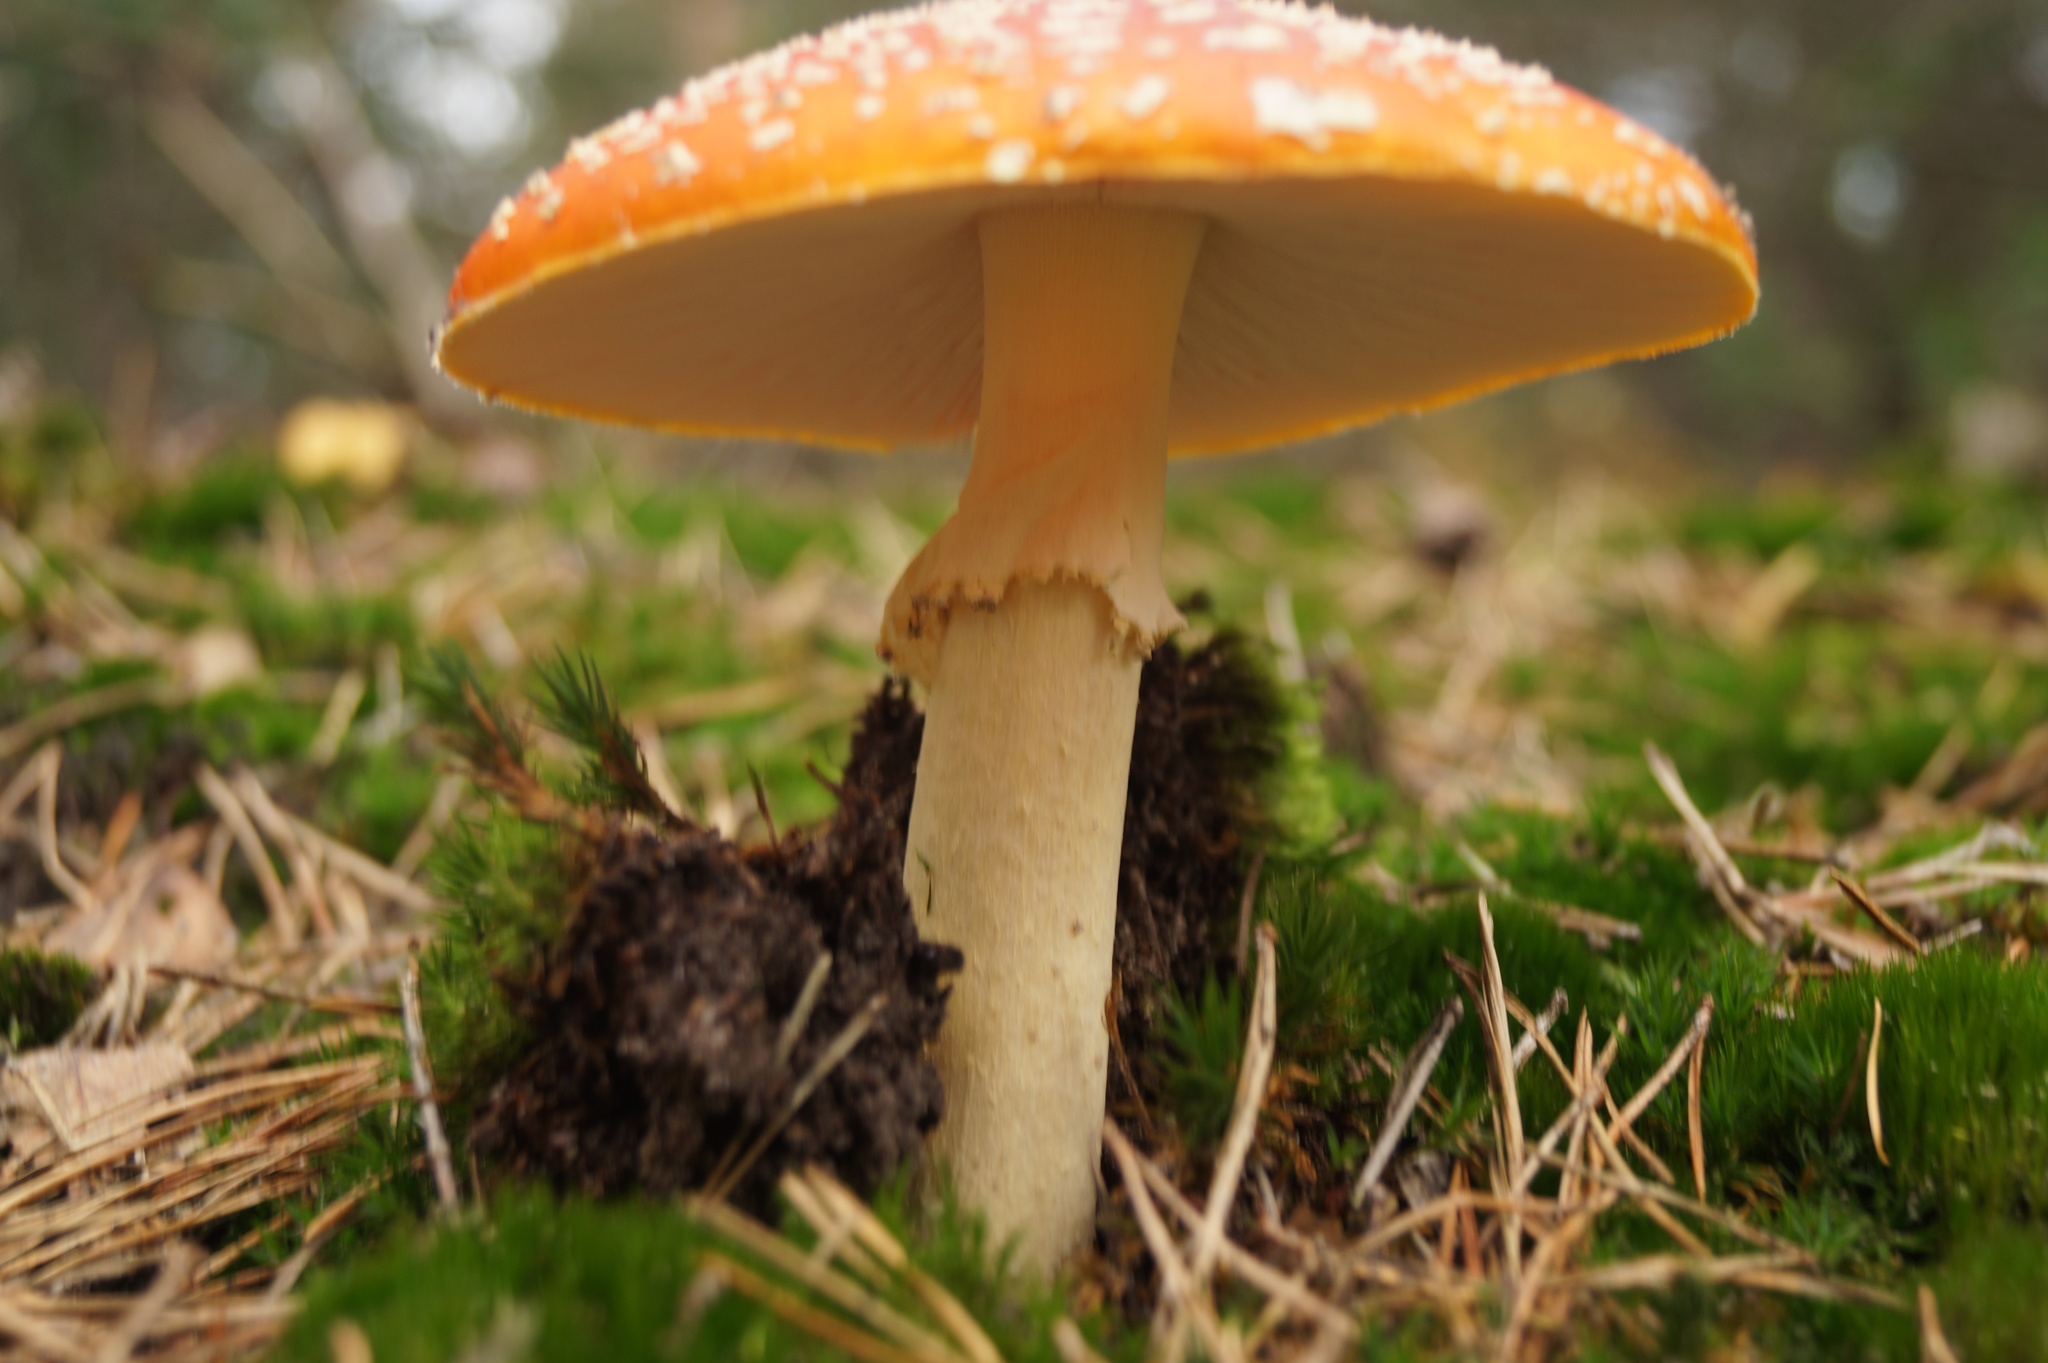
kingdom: Fungi
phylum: Basidiomycota
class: Agaricomycetes
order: Agaricales
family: Amanitaceae
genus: Amanita
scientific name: Amanita muscaria
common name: Fly agaric
